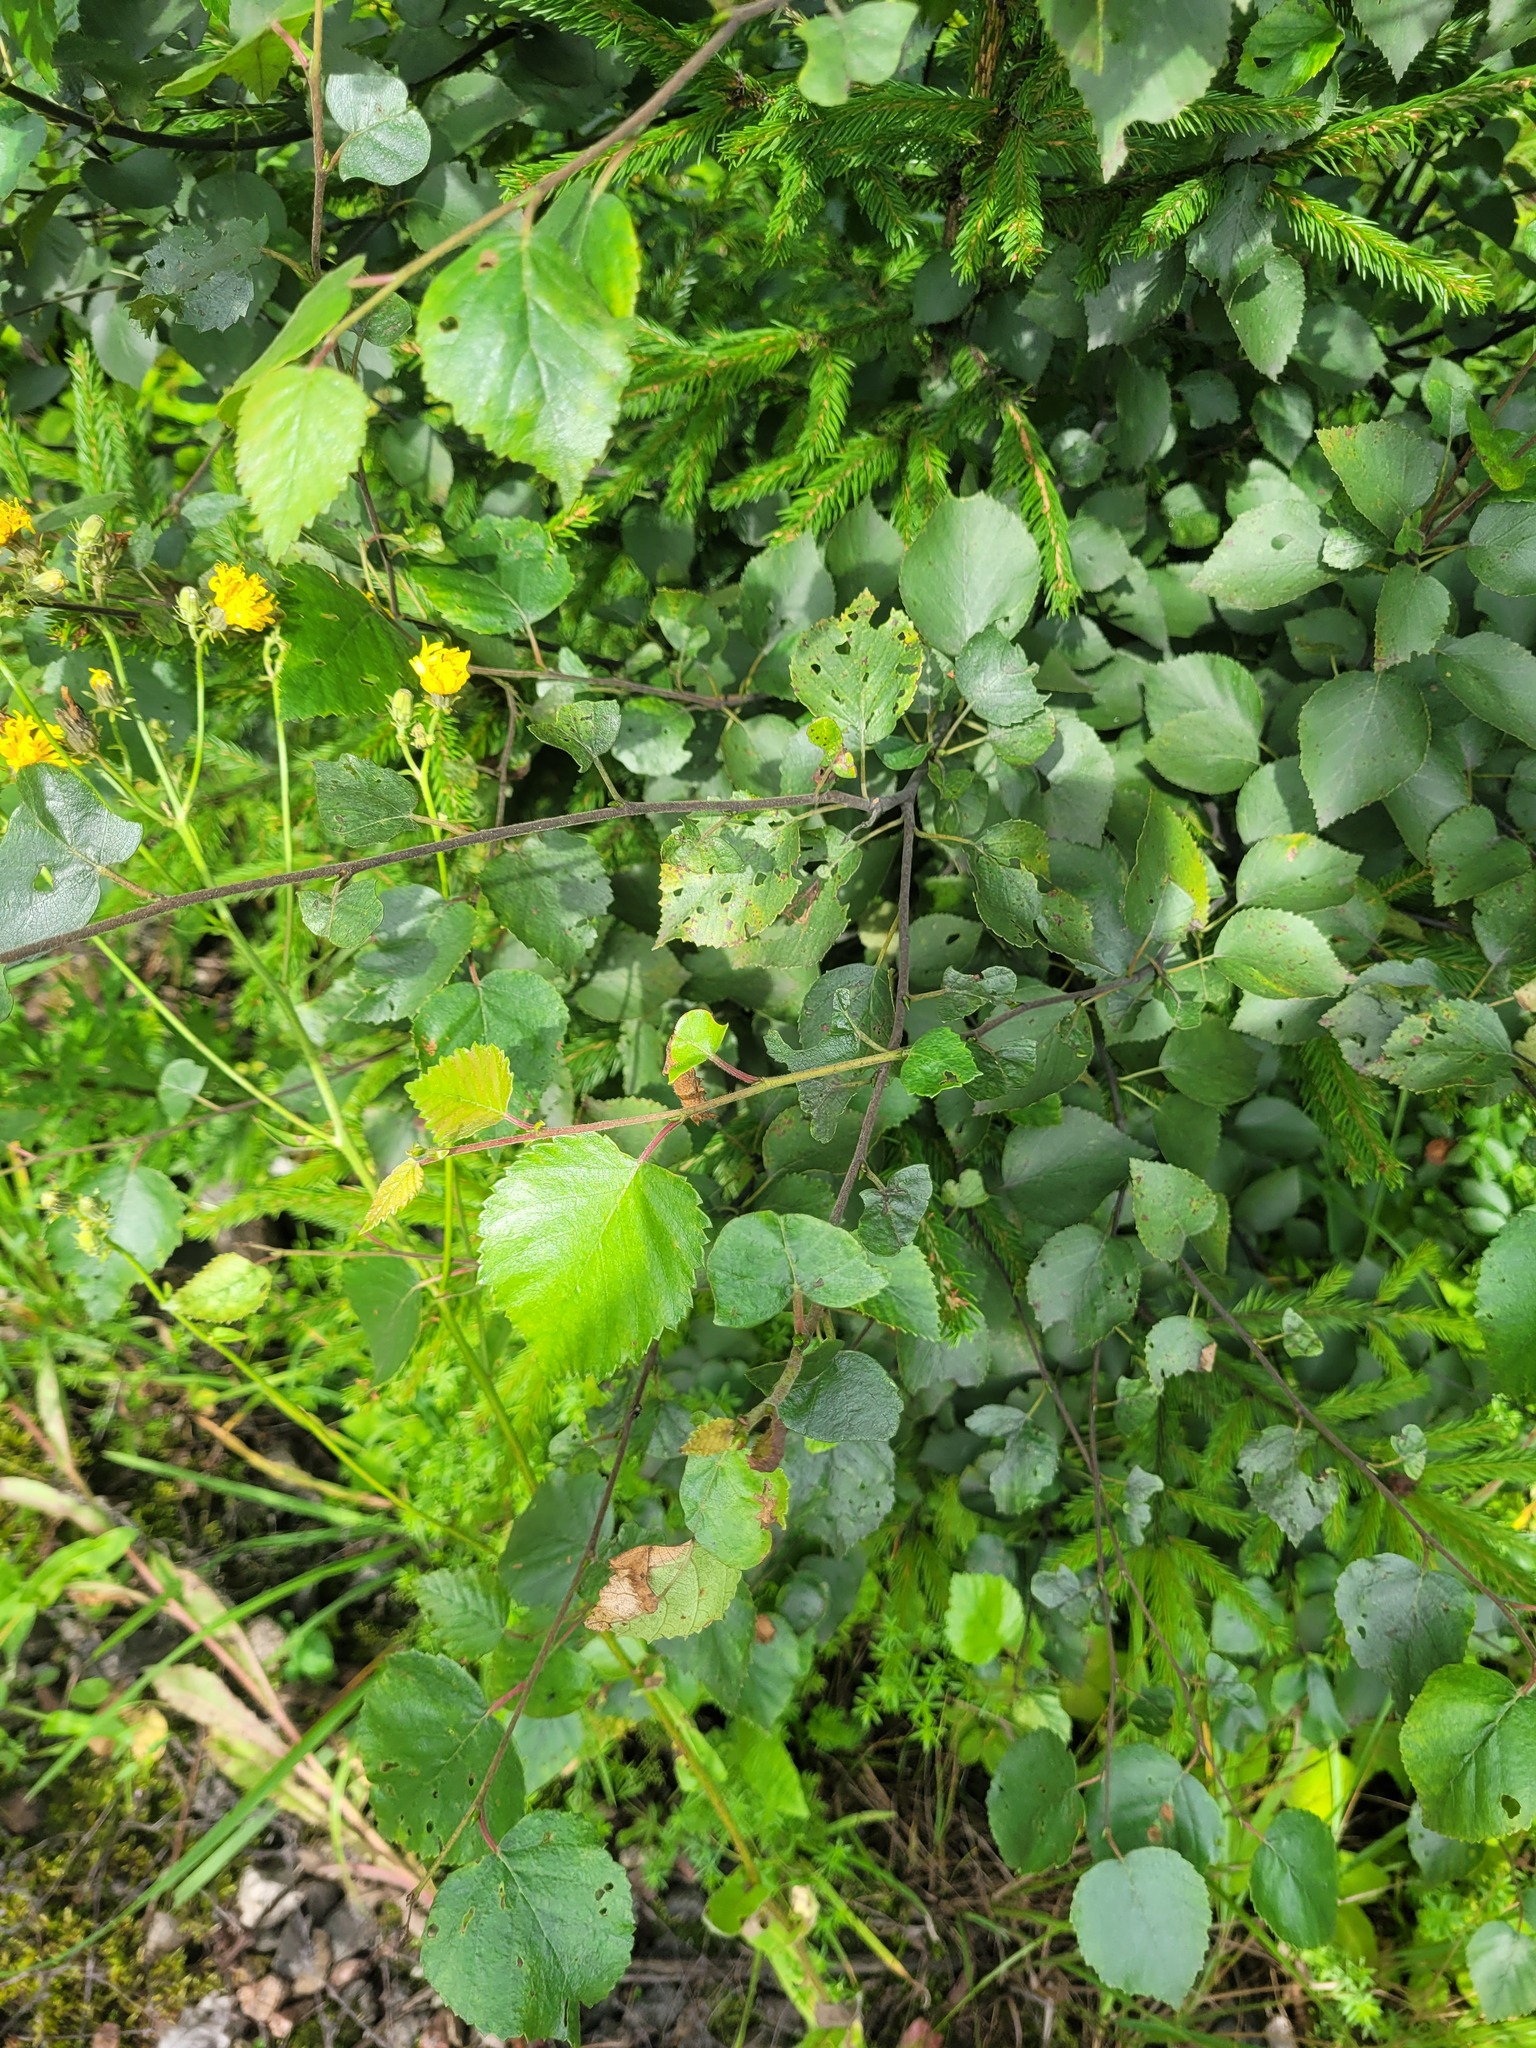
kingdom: Plantae
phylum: Tracheophyta
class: Magnoliopsida
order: Fagales
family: Betulaceae
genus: Betula
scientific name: Betula pubescens
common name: Downy birch
